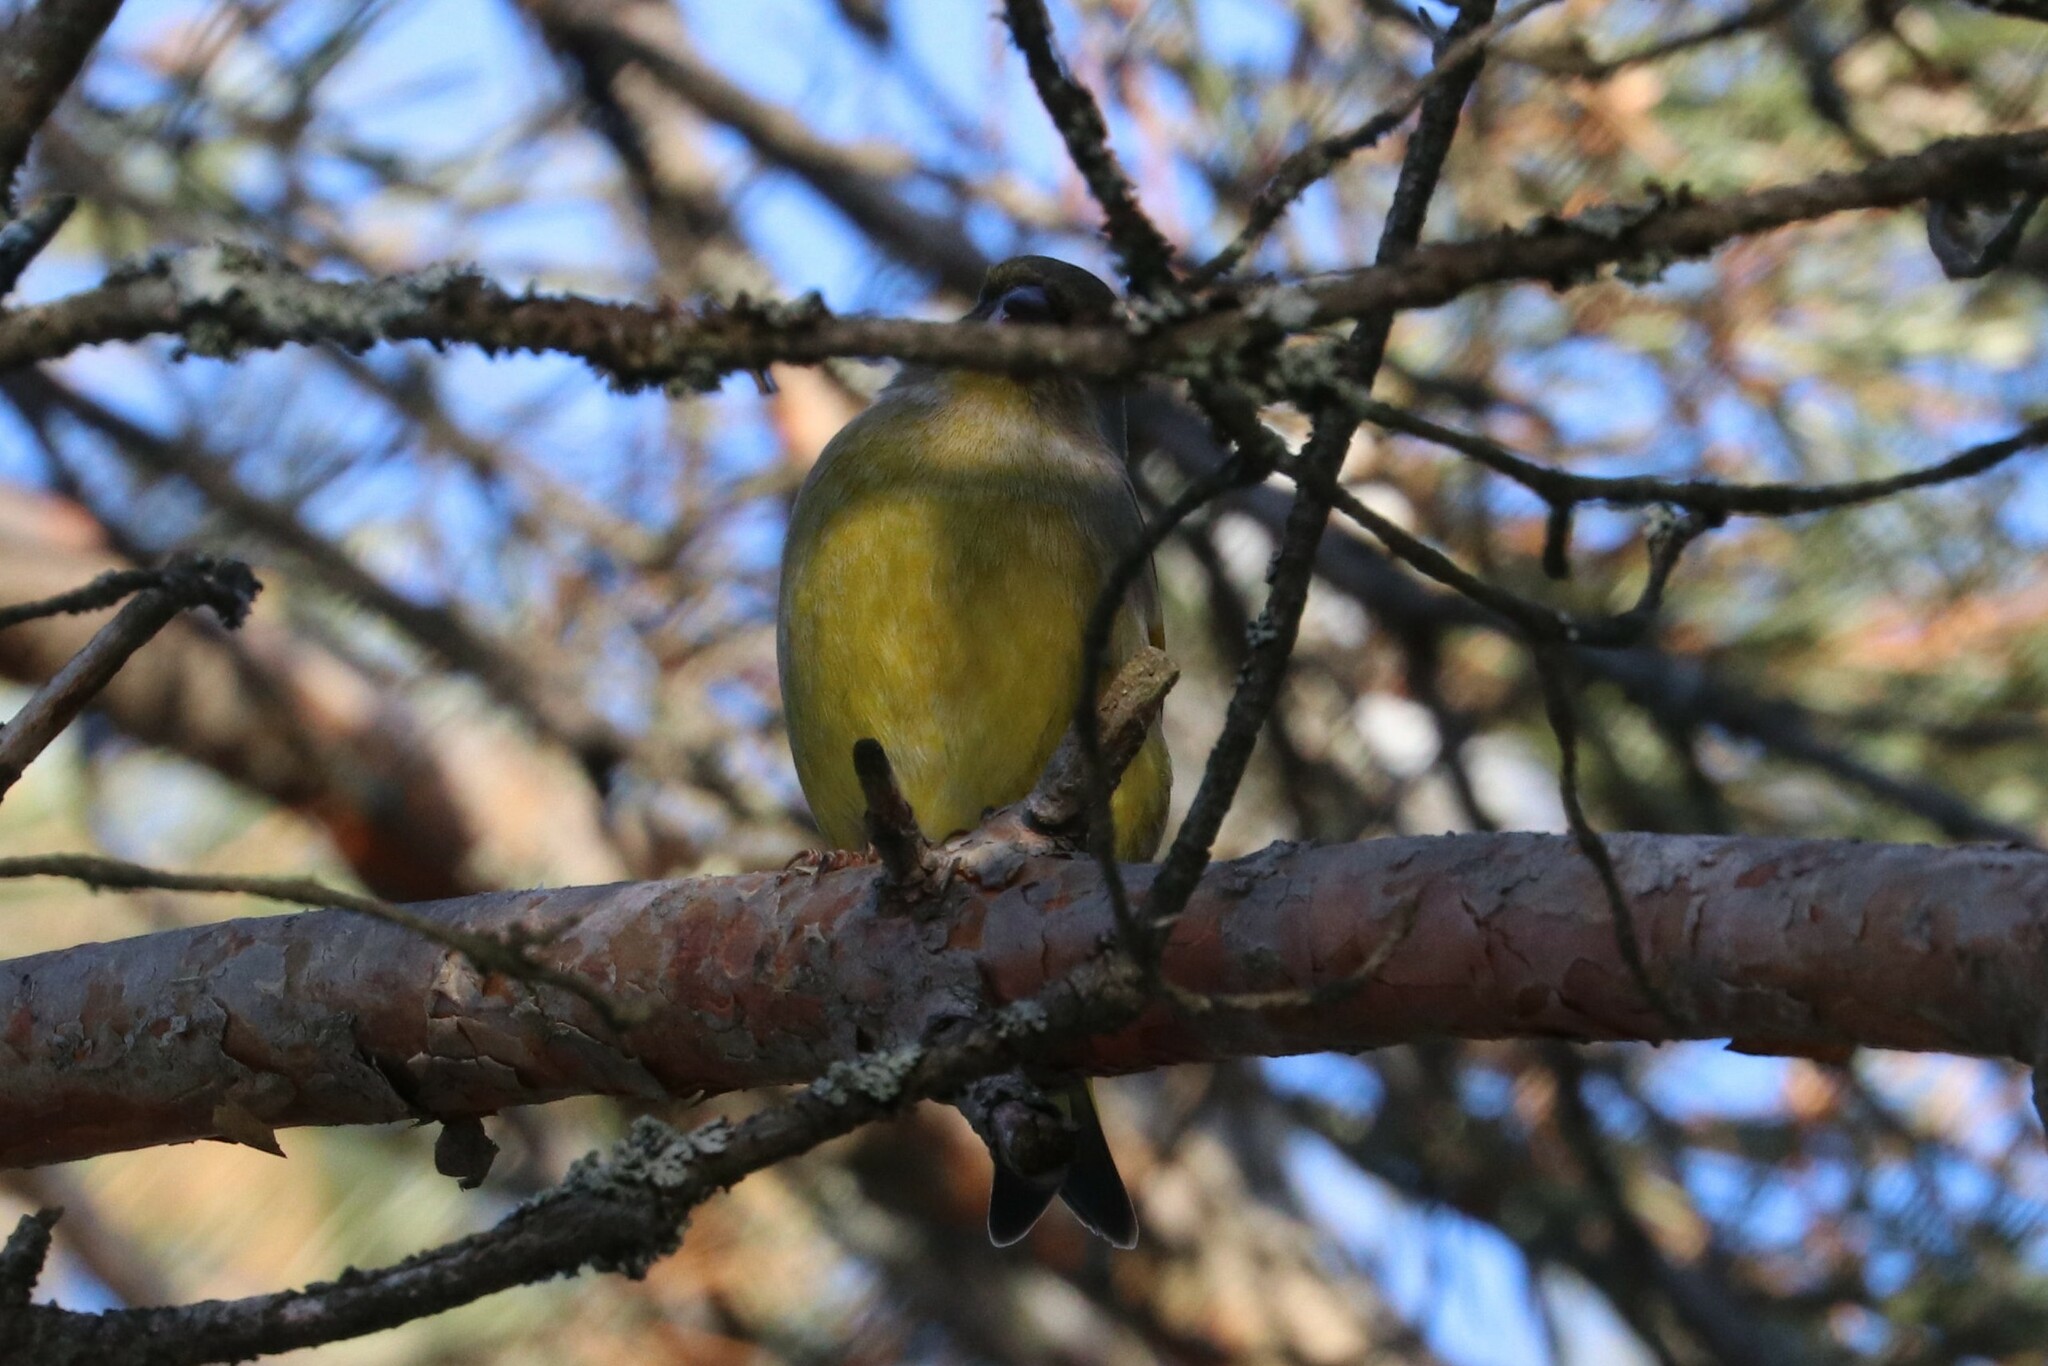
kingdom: Plantae
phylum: Tracheophyta
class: Liliopsida
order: Poales
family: Poaceae
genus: Chloris
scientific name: Chloris chloris
